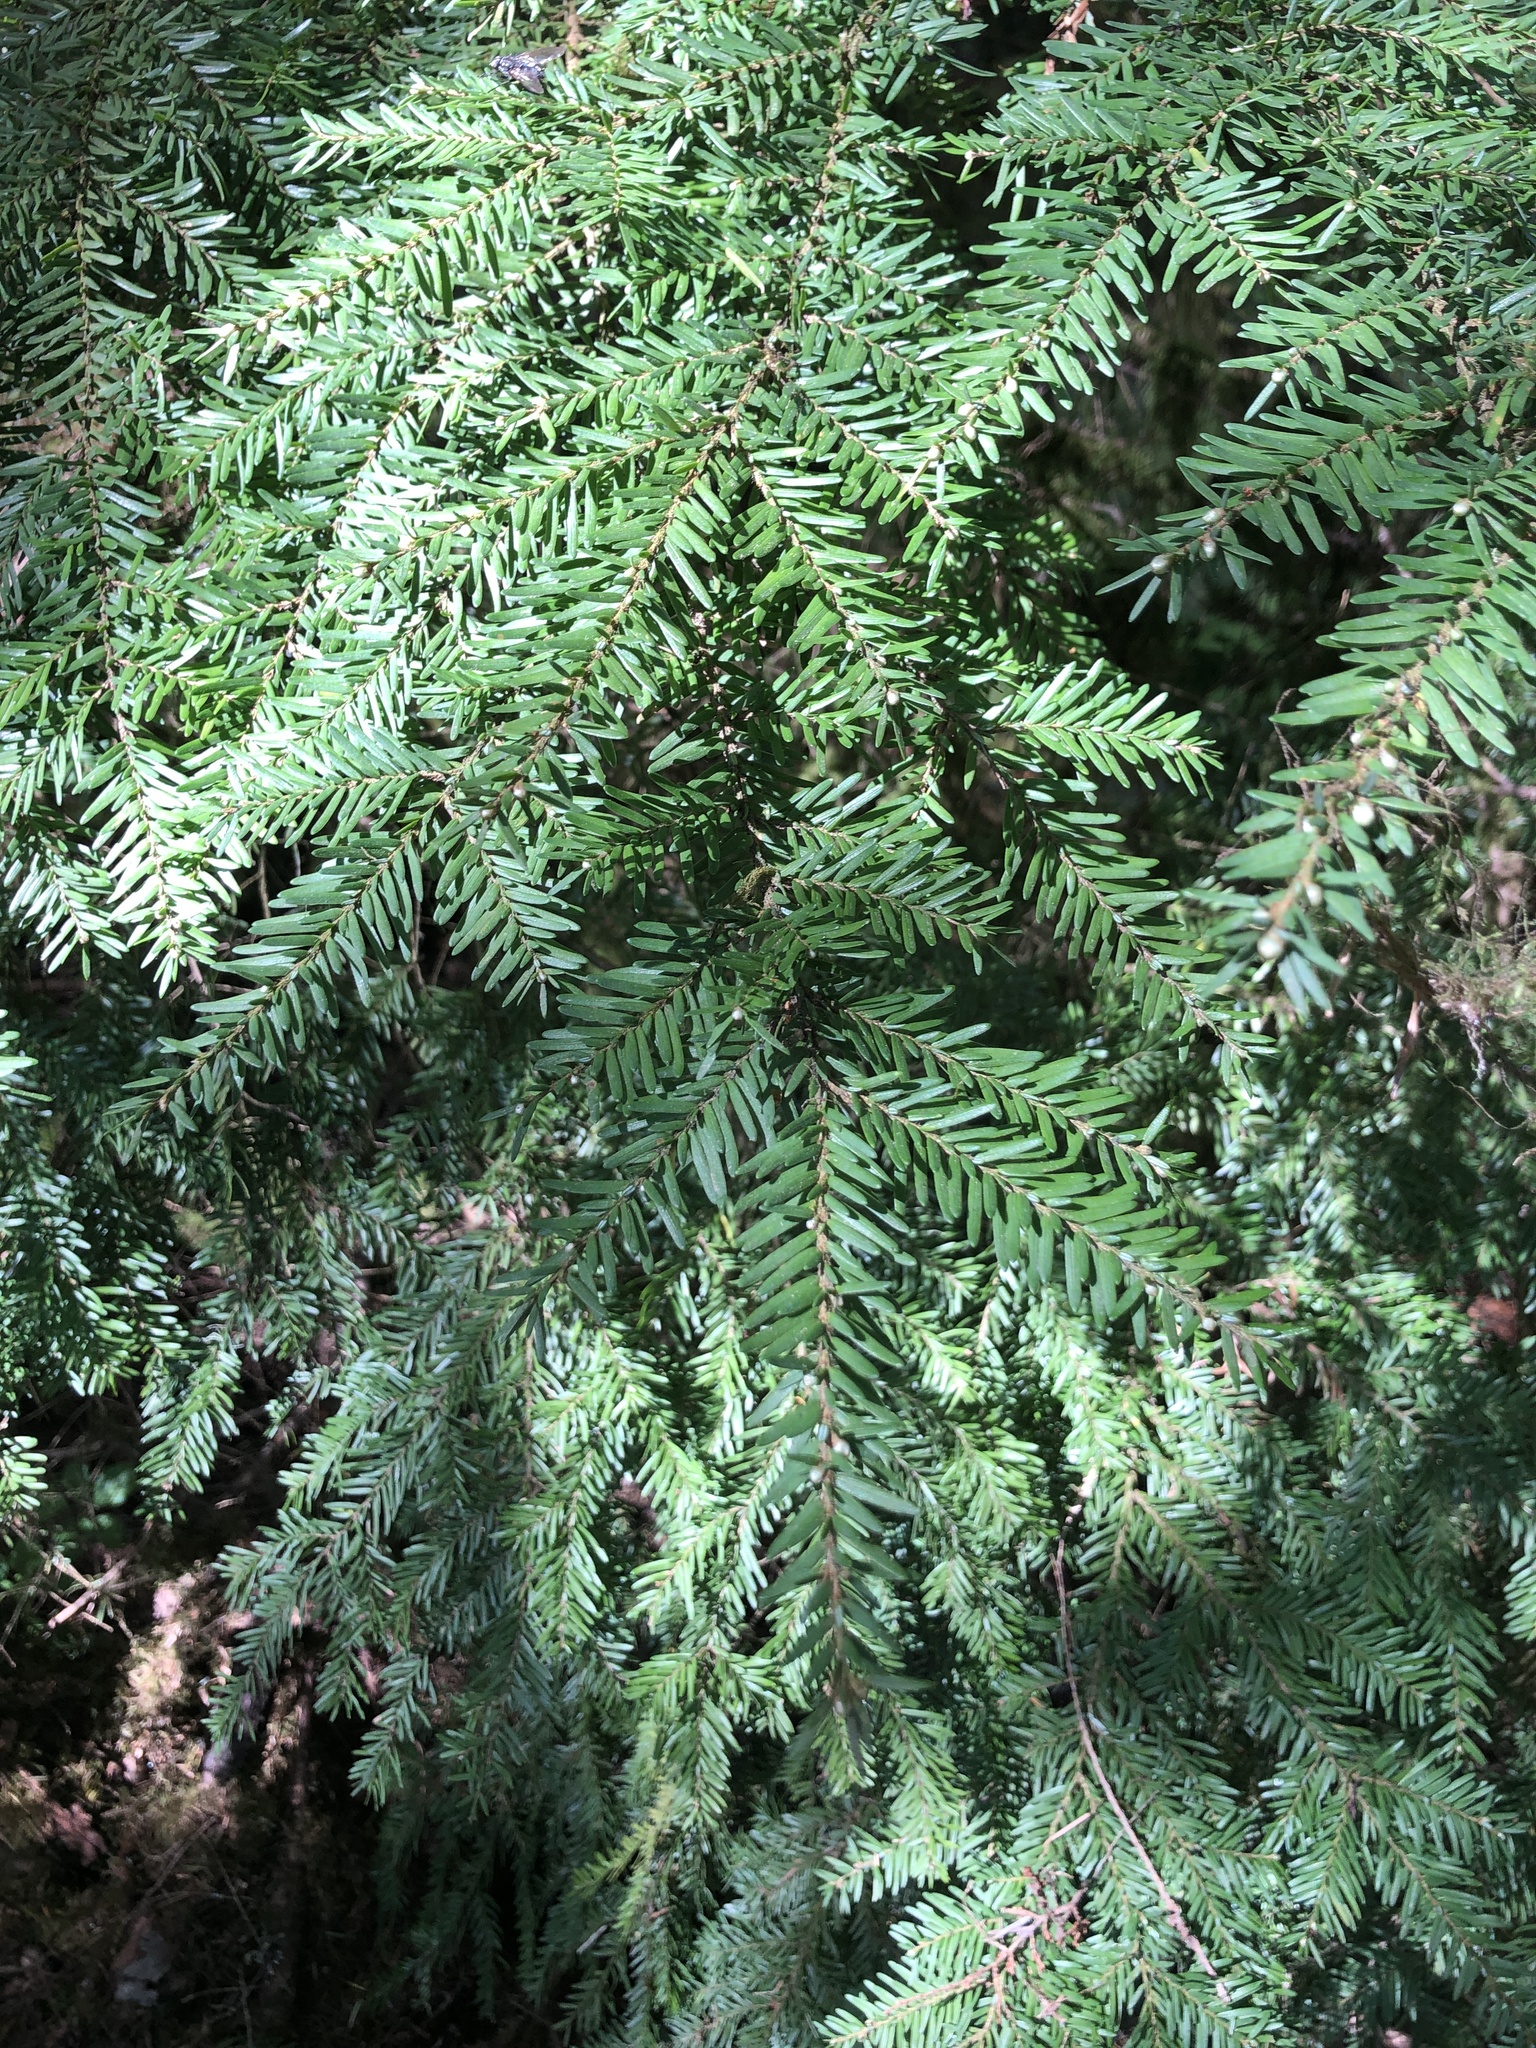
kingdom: Plantae
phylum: Tracheophyta
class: Pinopsida
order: Pinales
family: Pinaceae
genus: Tsuga
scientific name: Tsuga heterophylla
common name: Western hemlock
